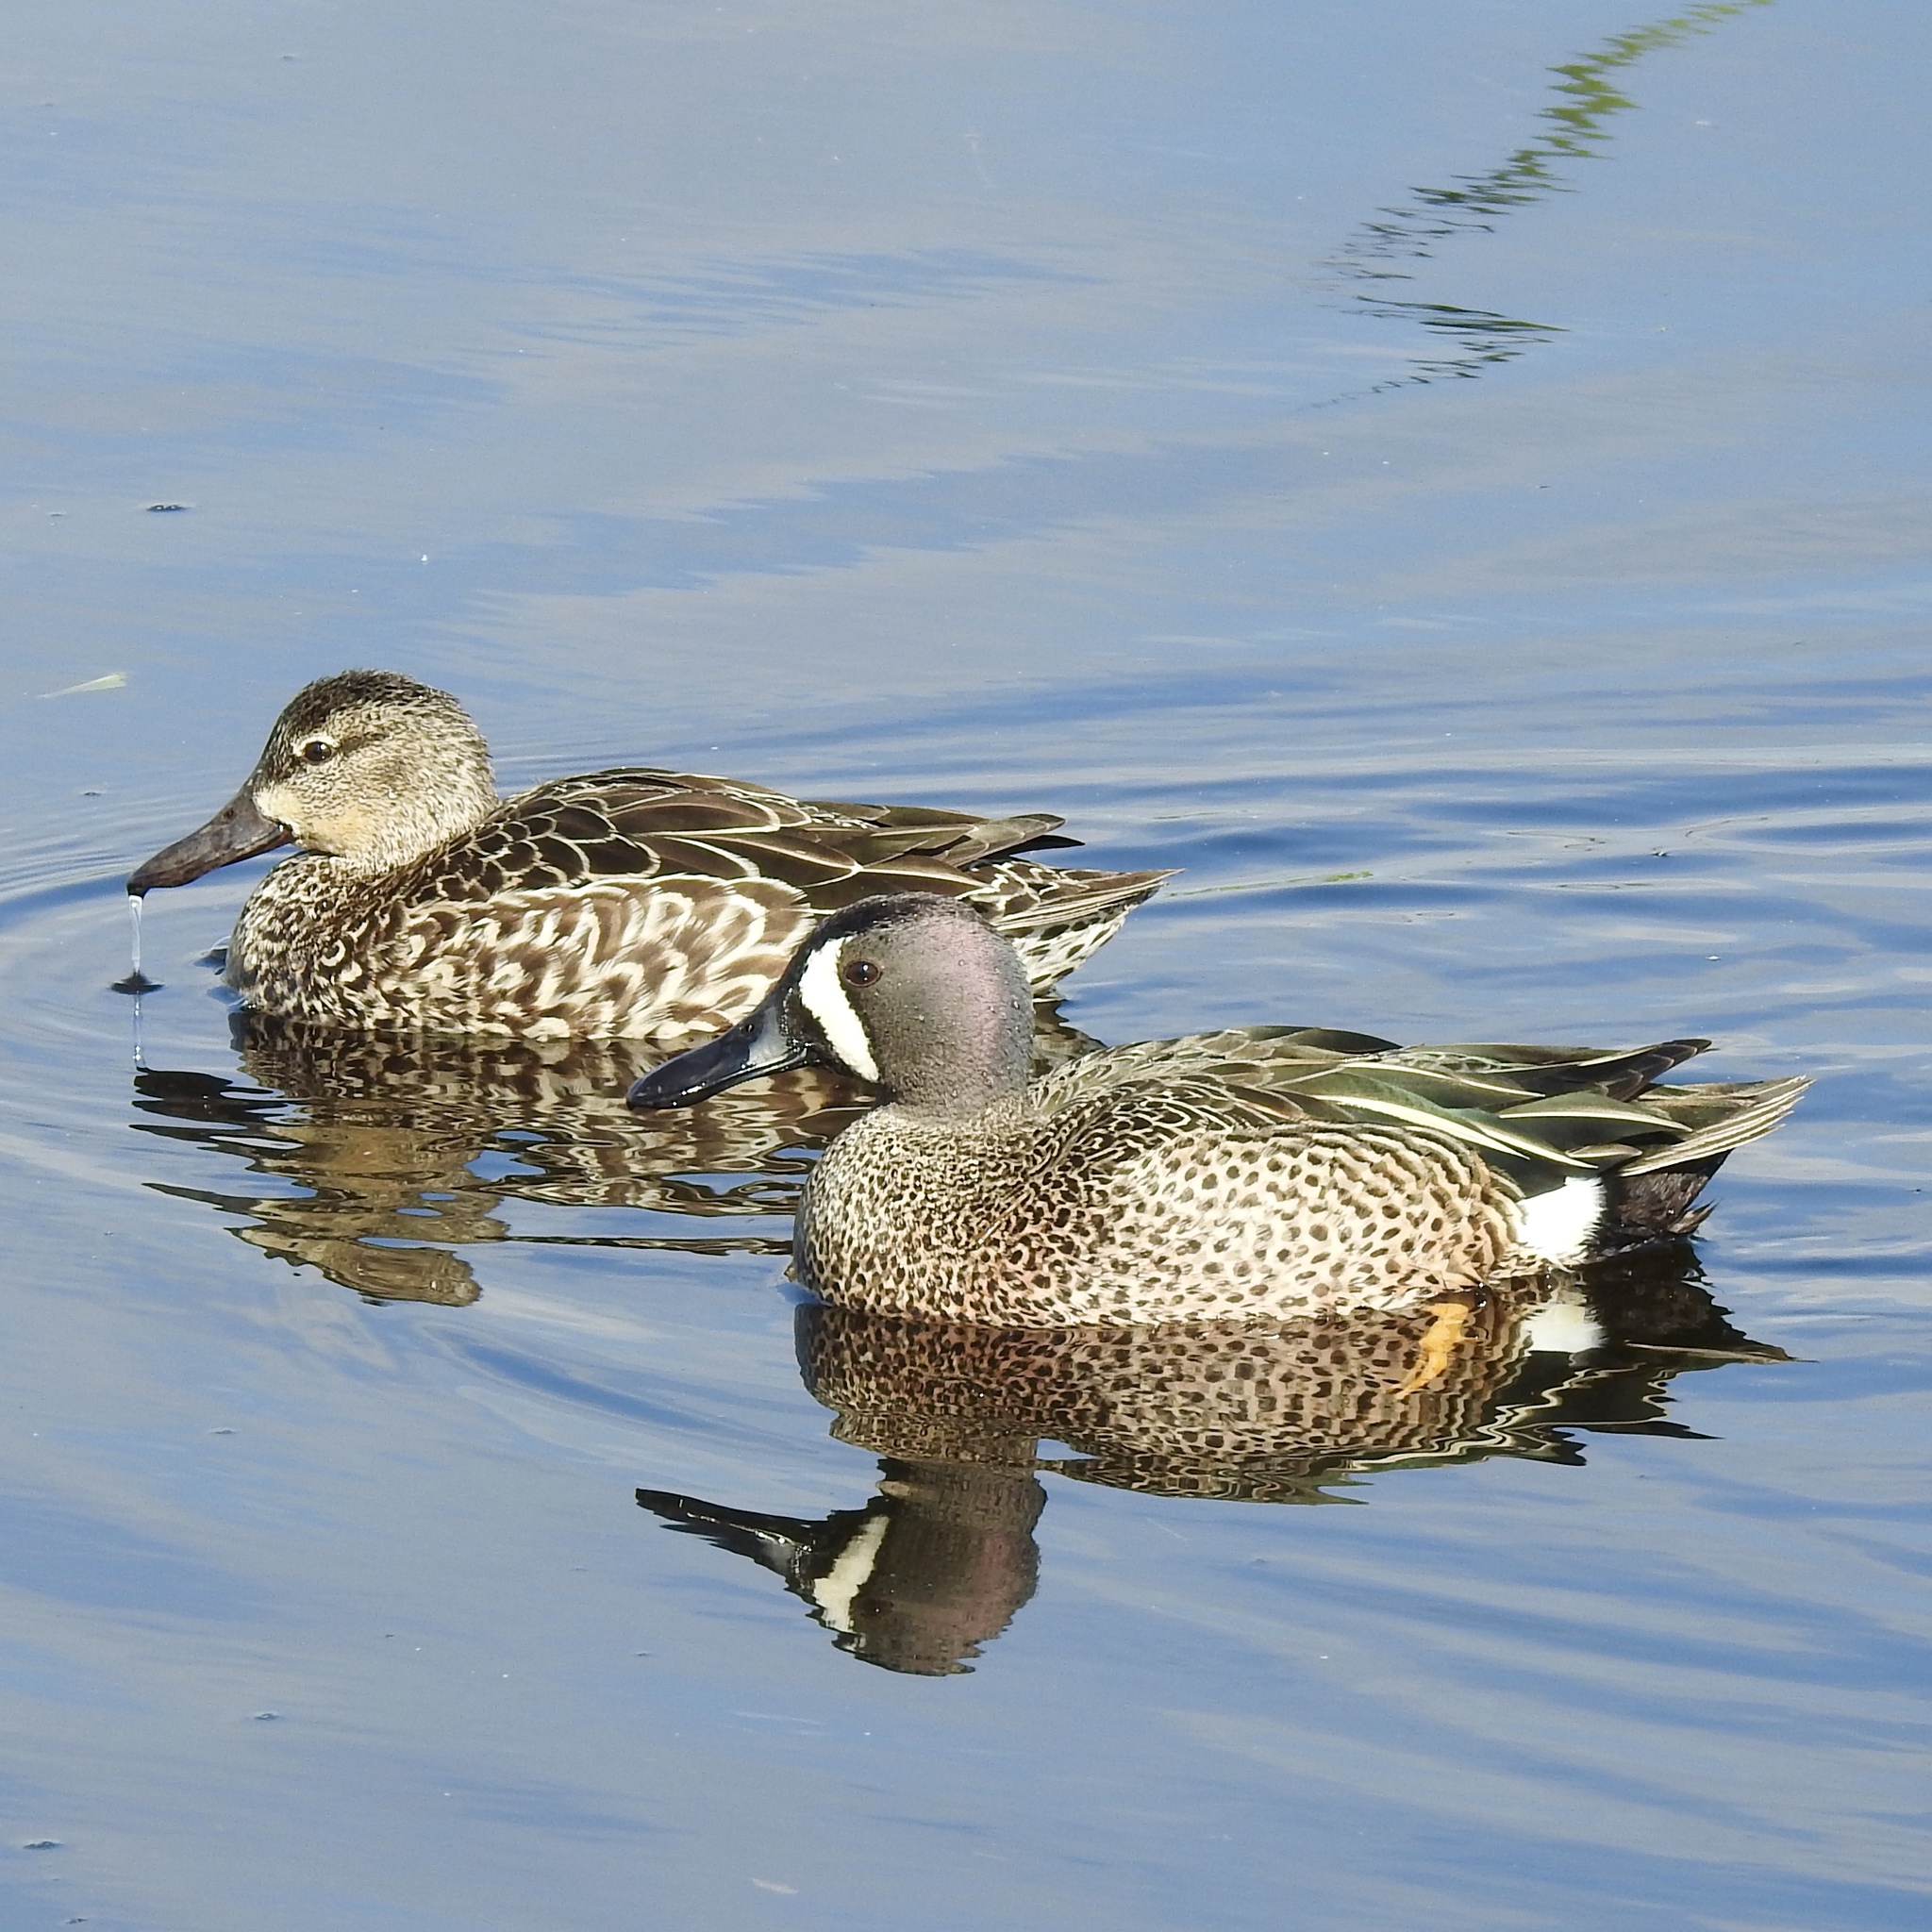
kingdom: Animalia
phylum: Chordata
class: Aves
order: Anseriformes
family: Anatidae
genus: Spatula
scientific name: Spatula discors
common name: Blue-winged teal
